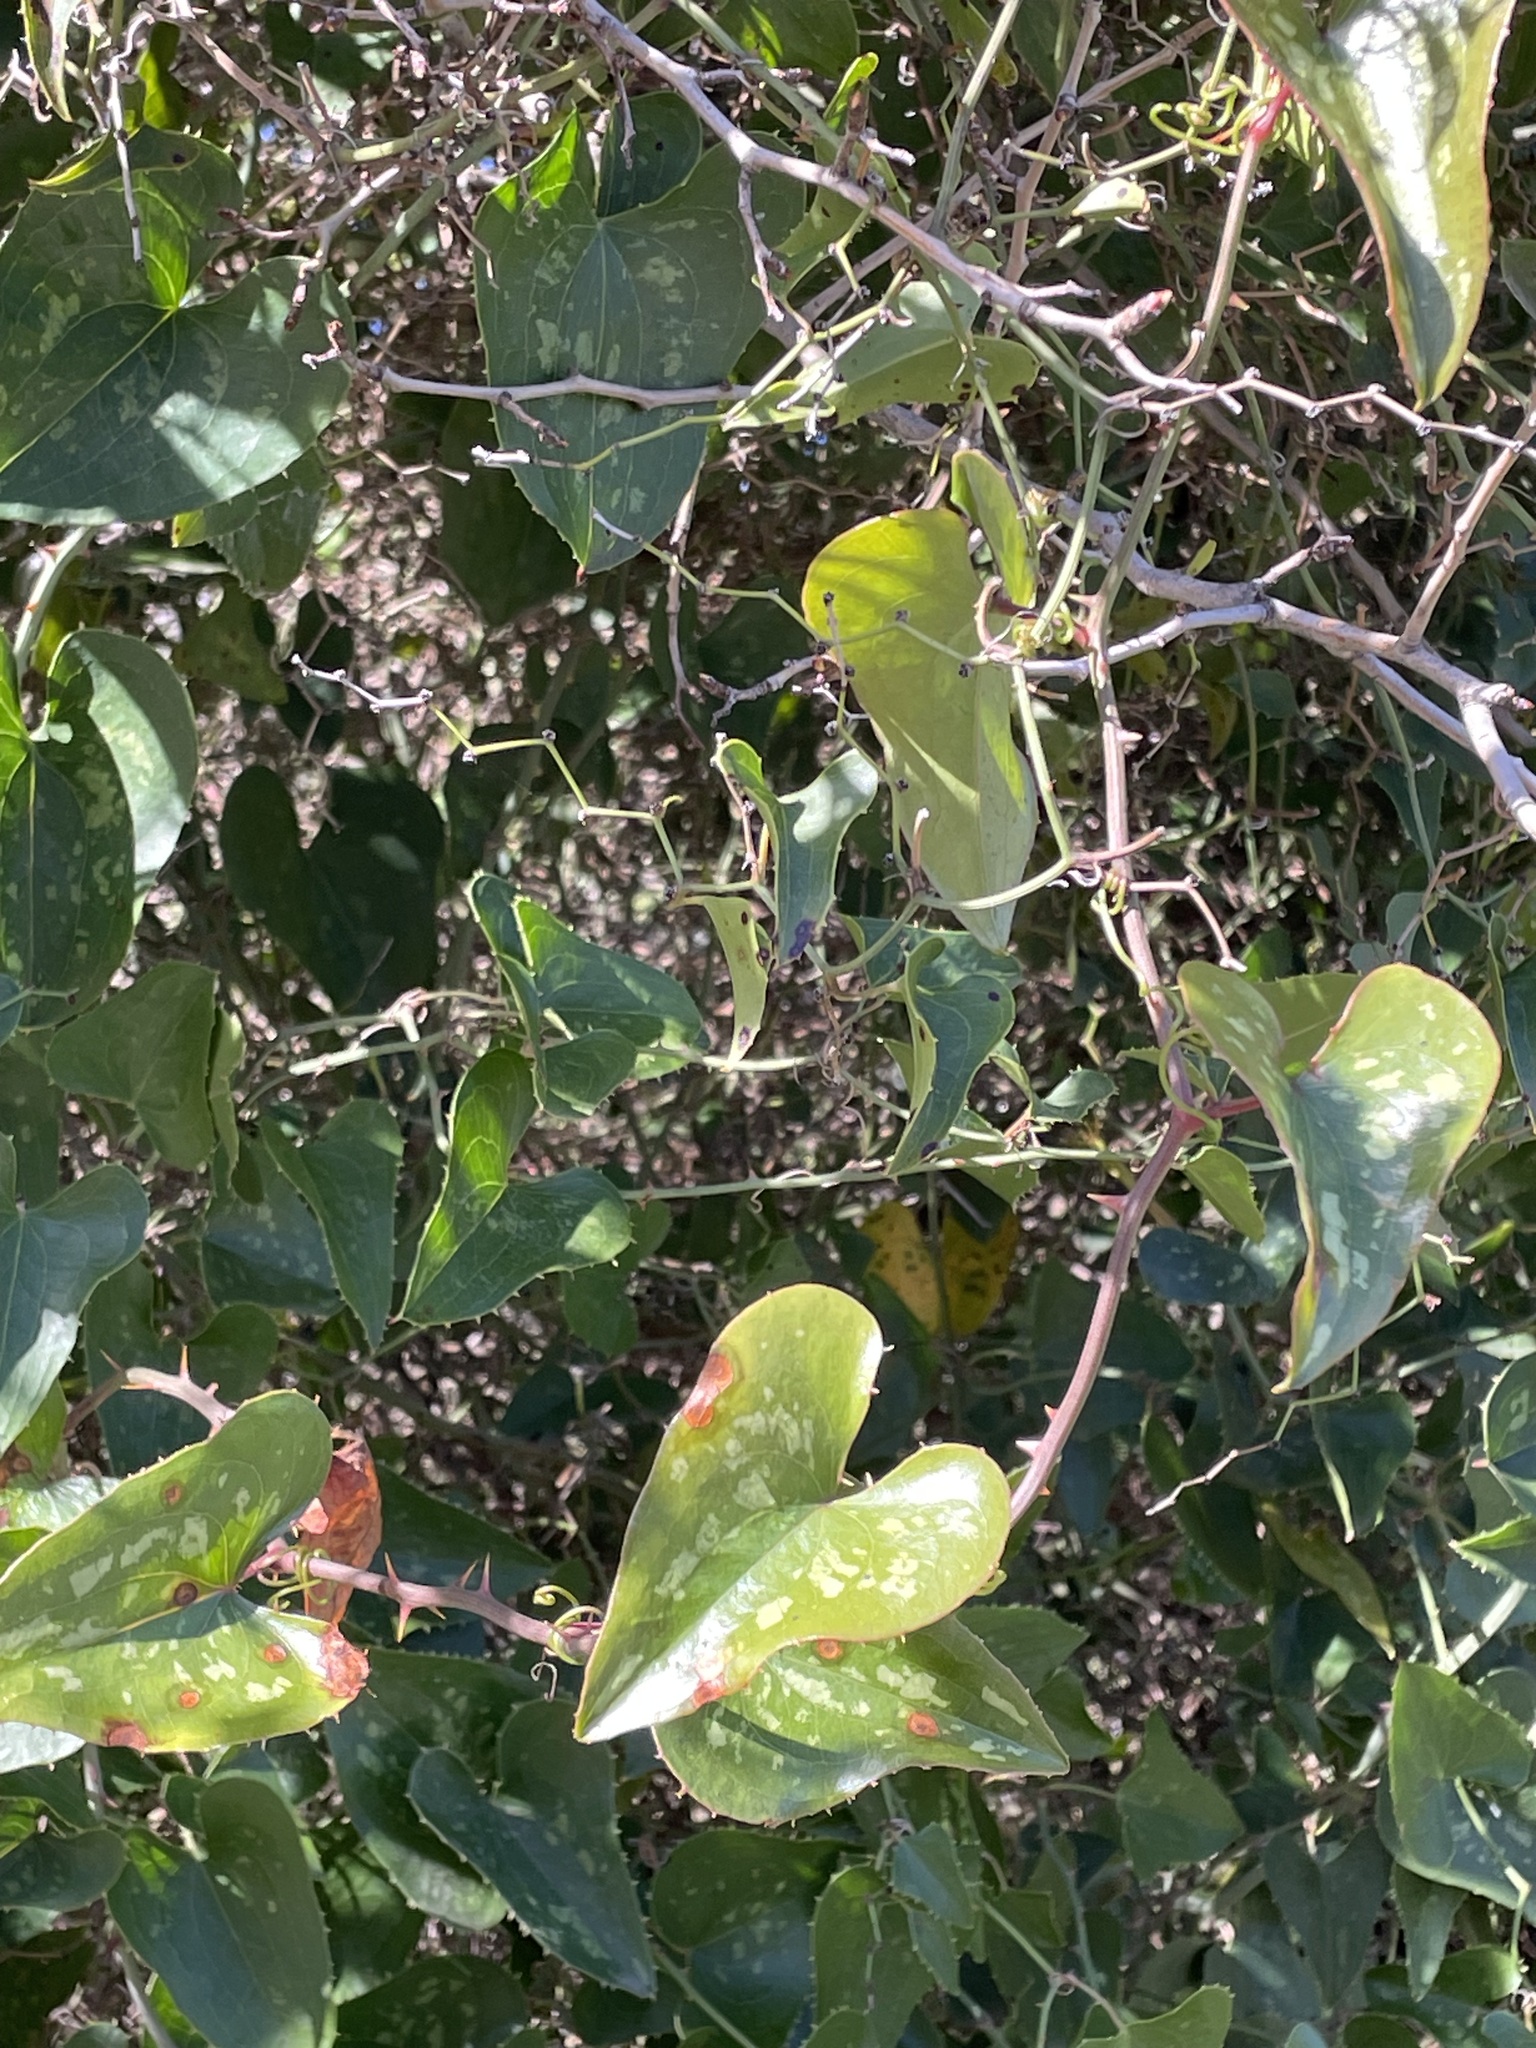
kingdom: Plantae
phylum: Tracheophyta
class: Liliopsida
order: Liliales
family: Smilacaceae
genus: Smilax
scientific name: Smilax aspera
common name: Common smilax
